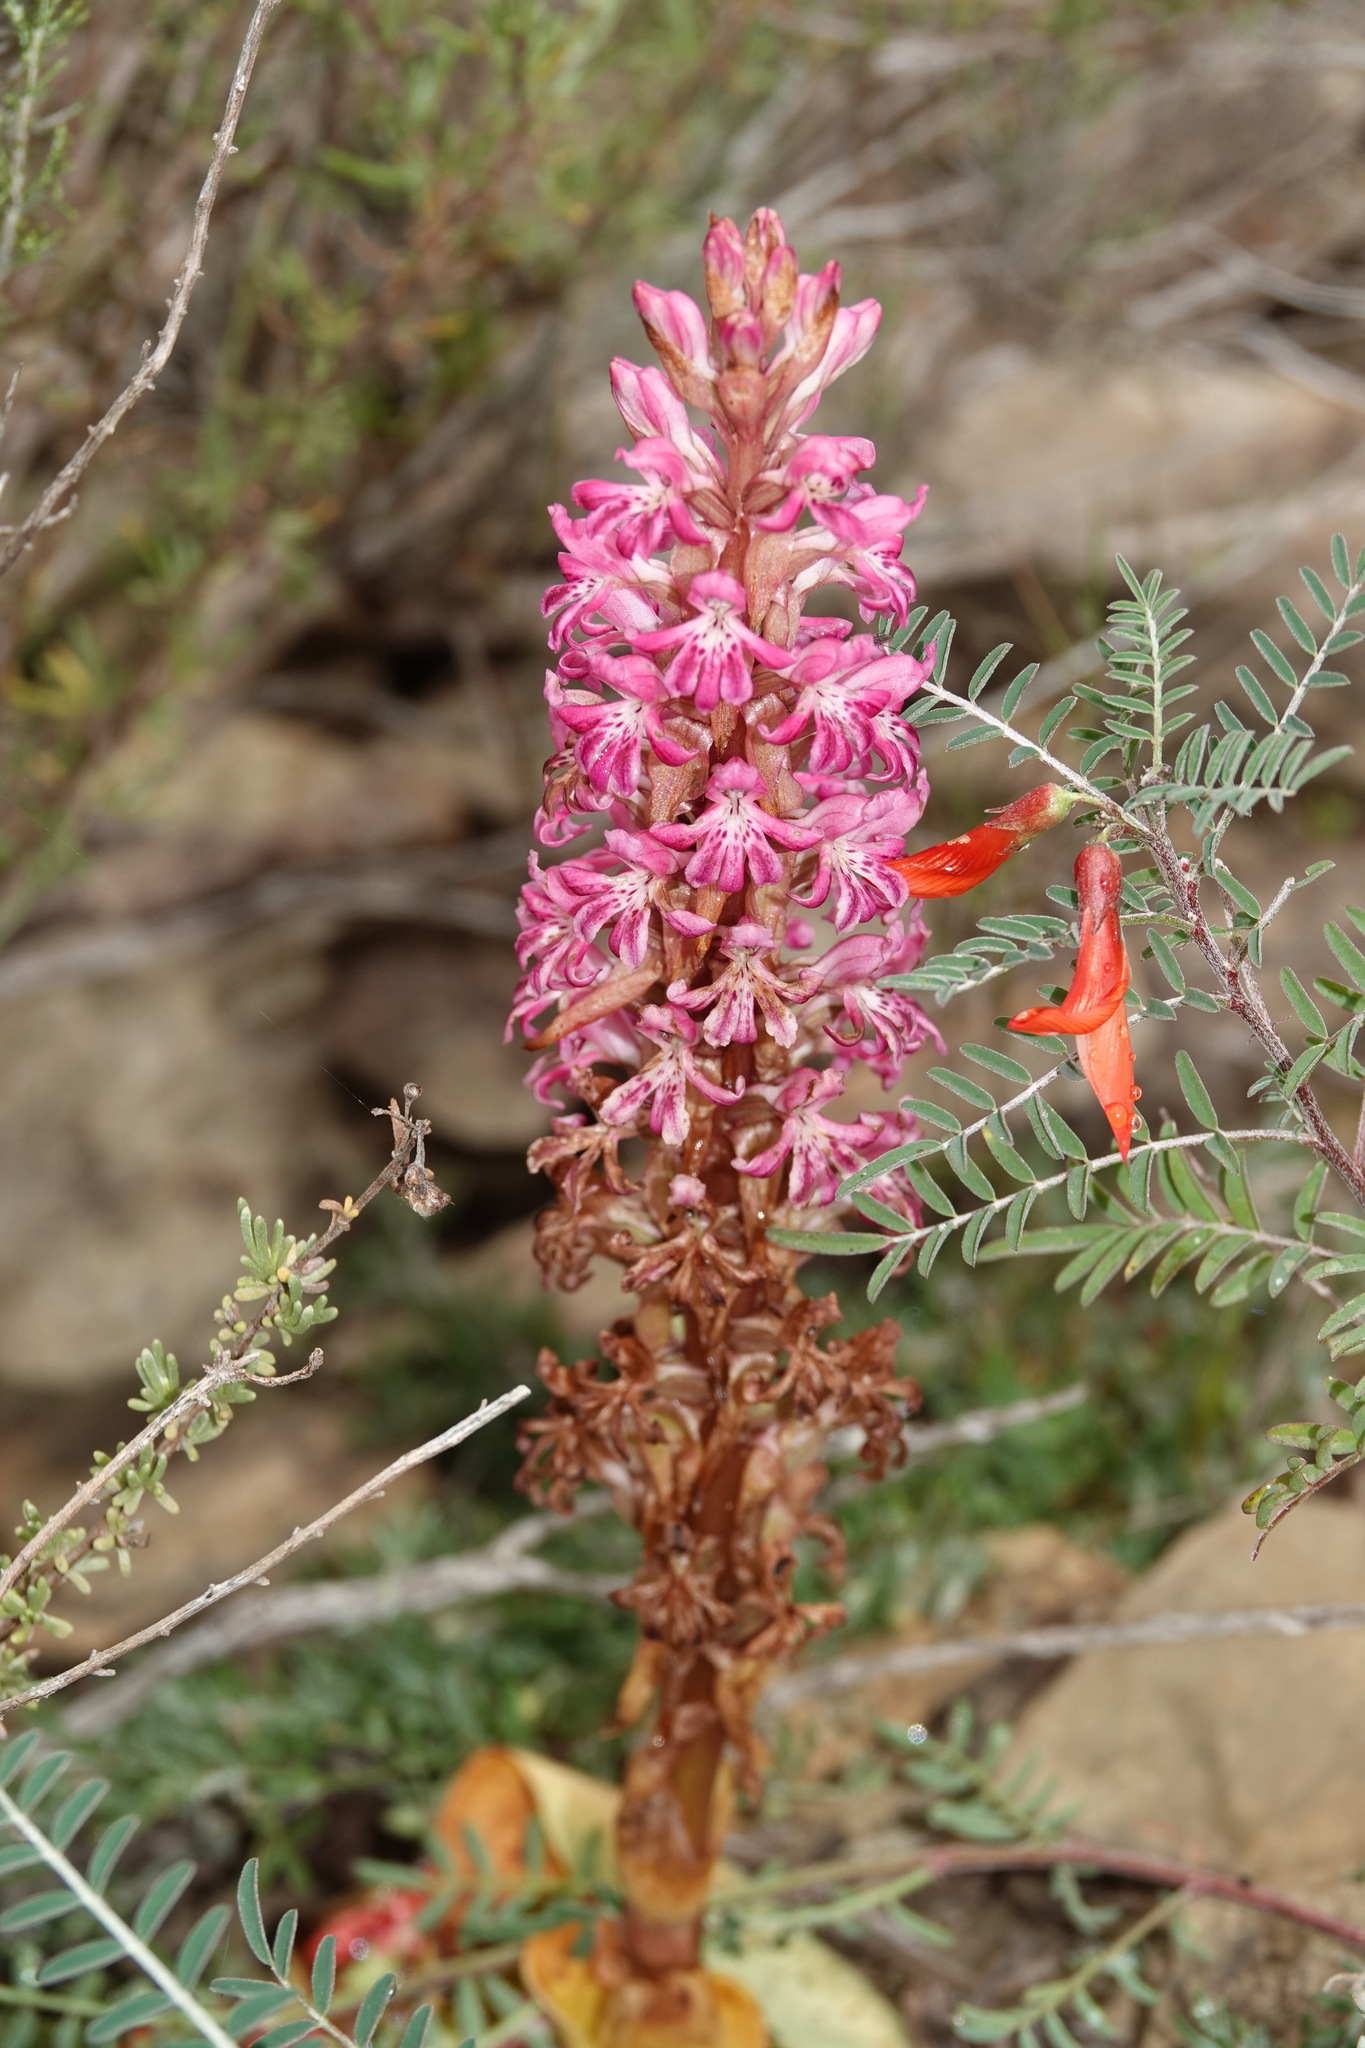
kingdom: Plantae
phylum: Tracheophyta
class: Liliopsida
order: Asparagales
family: Orchidaceae
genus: Satyrium
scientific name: Satyrium erectum
